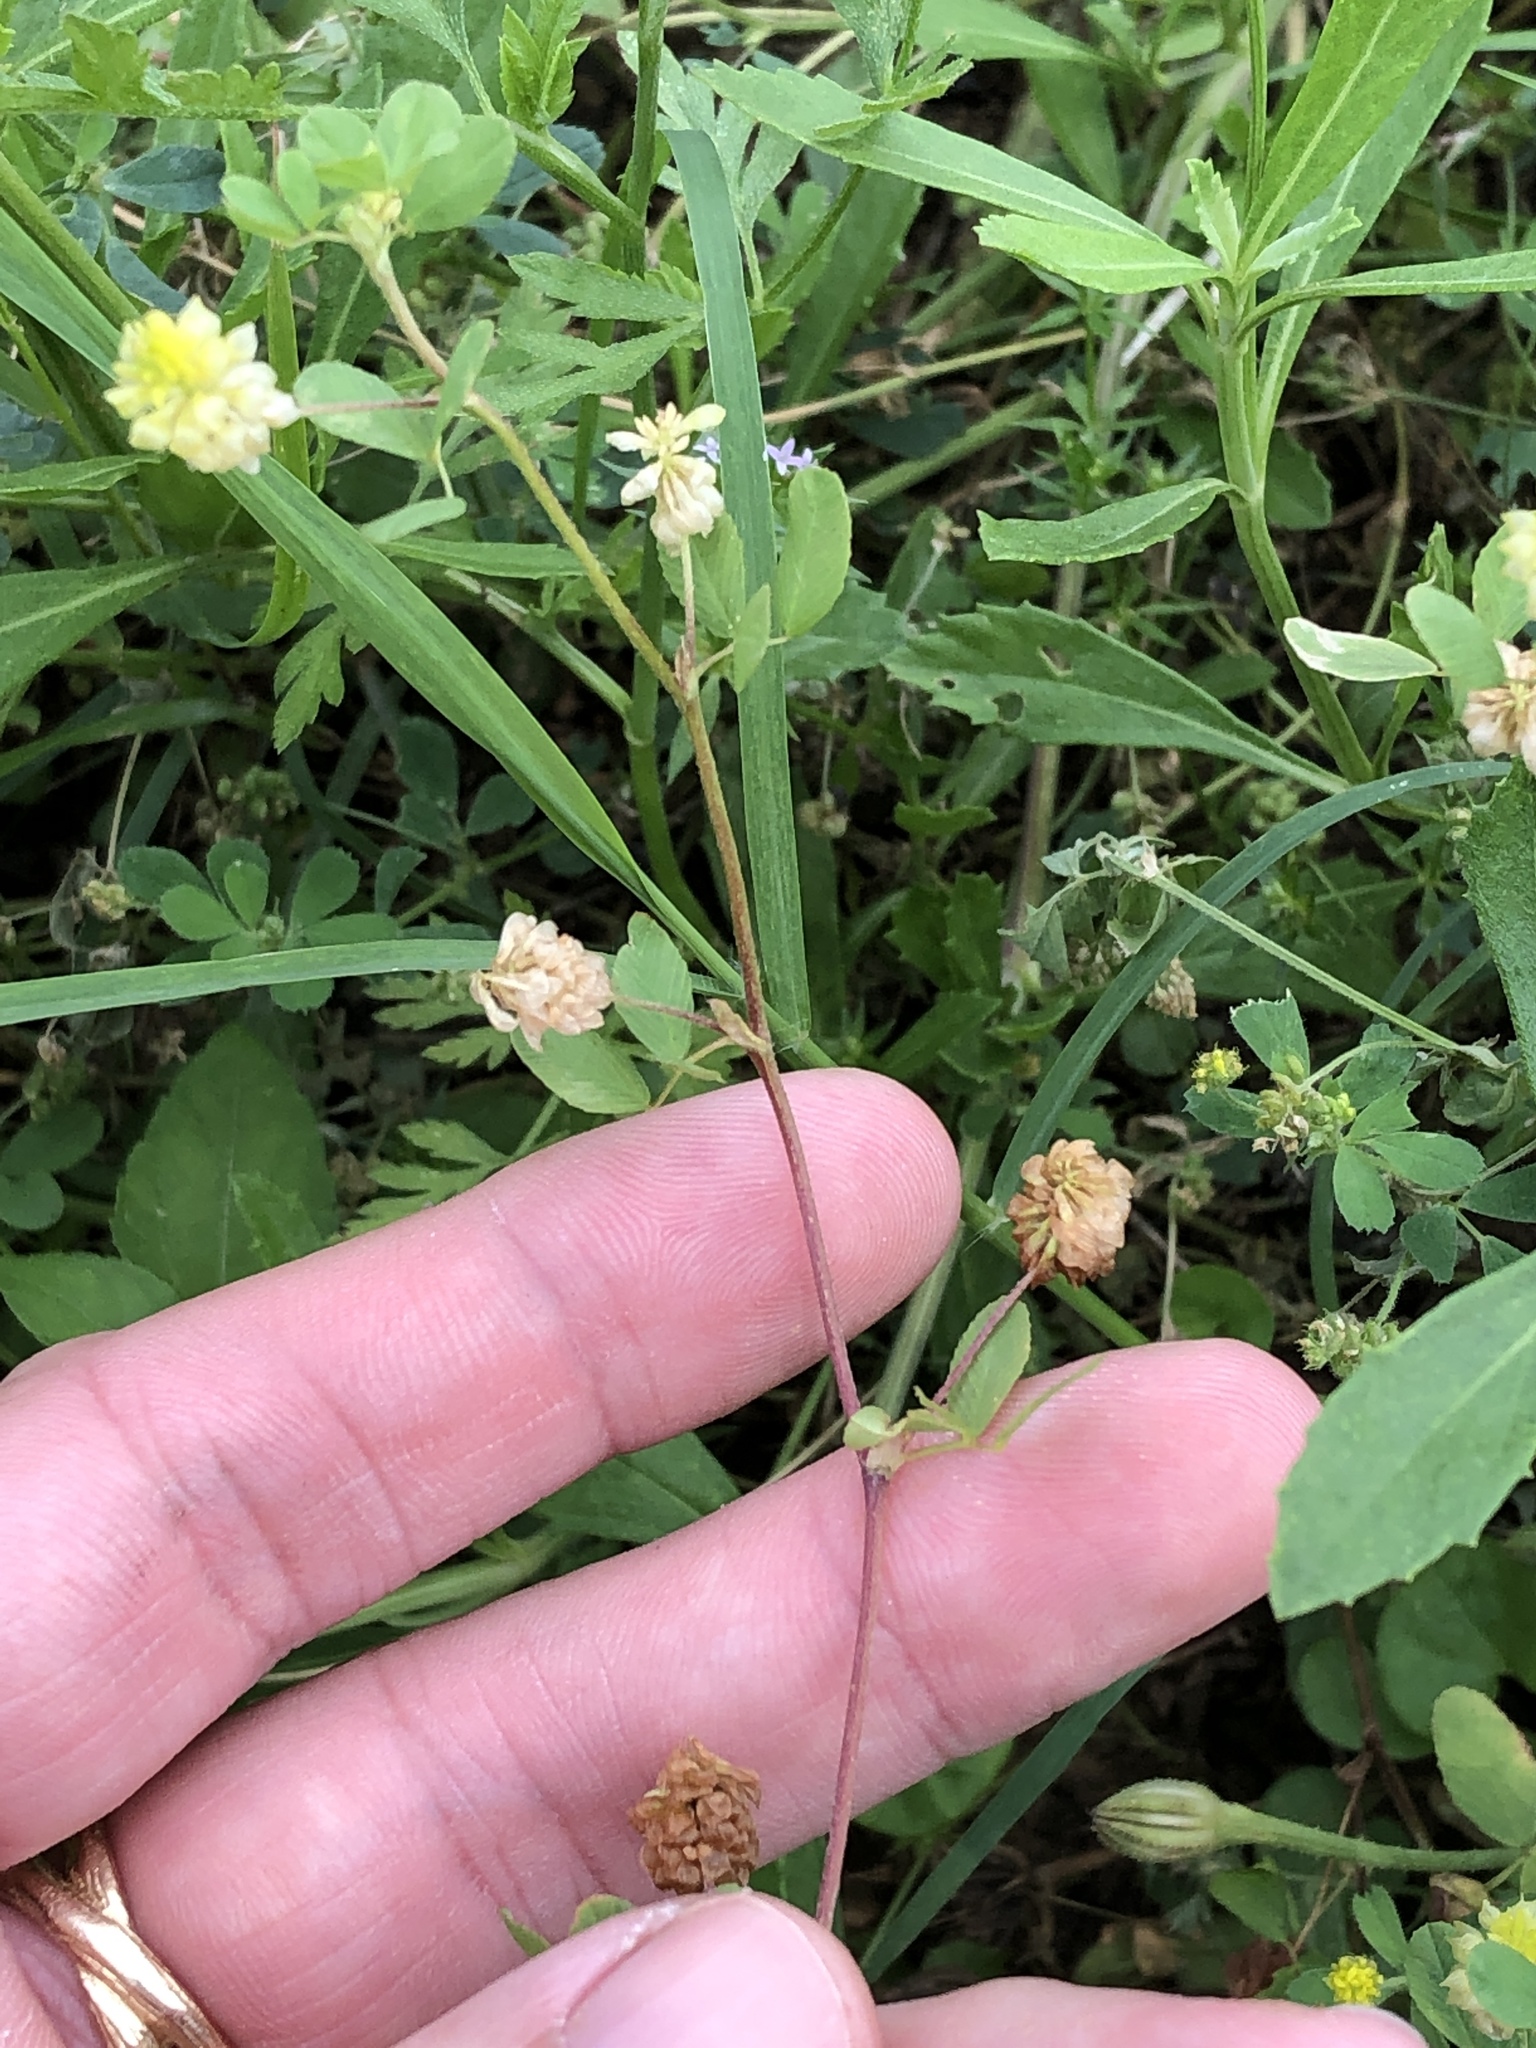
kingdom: Plantae
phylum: Tracheophyta
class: Magnoliopsida
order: Fabales
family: Fabaceae
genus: Trifolium
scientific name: Trifolium campestre
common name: Field clover
